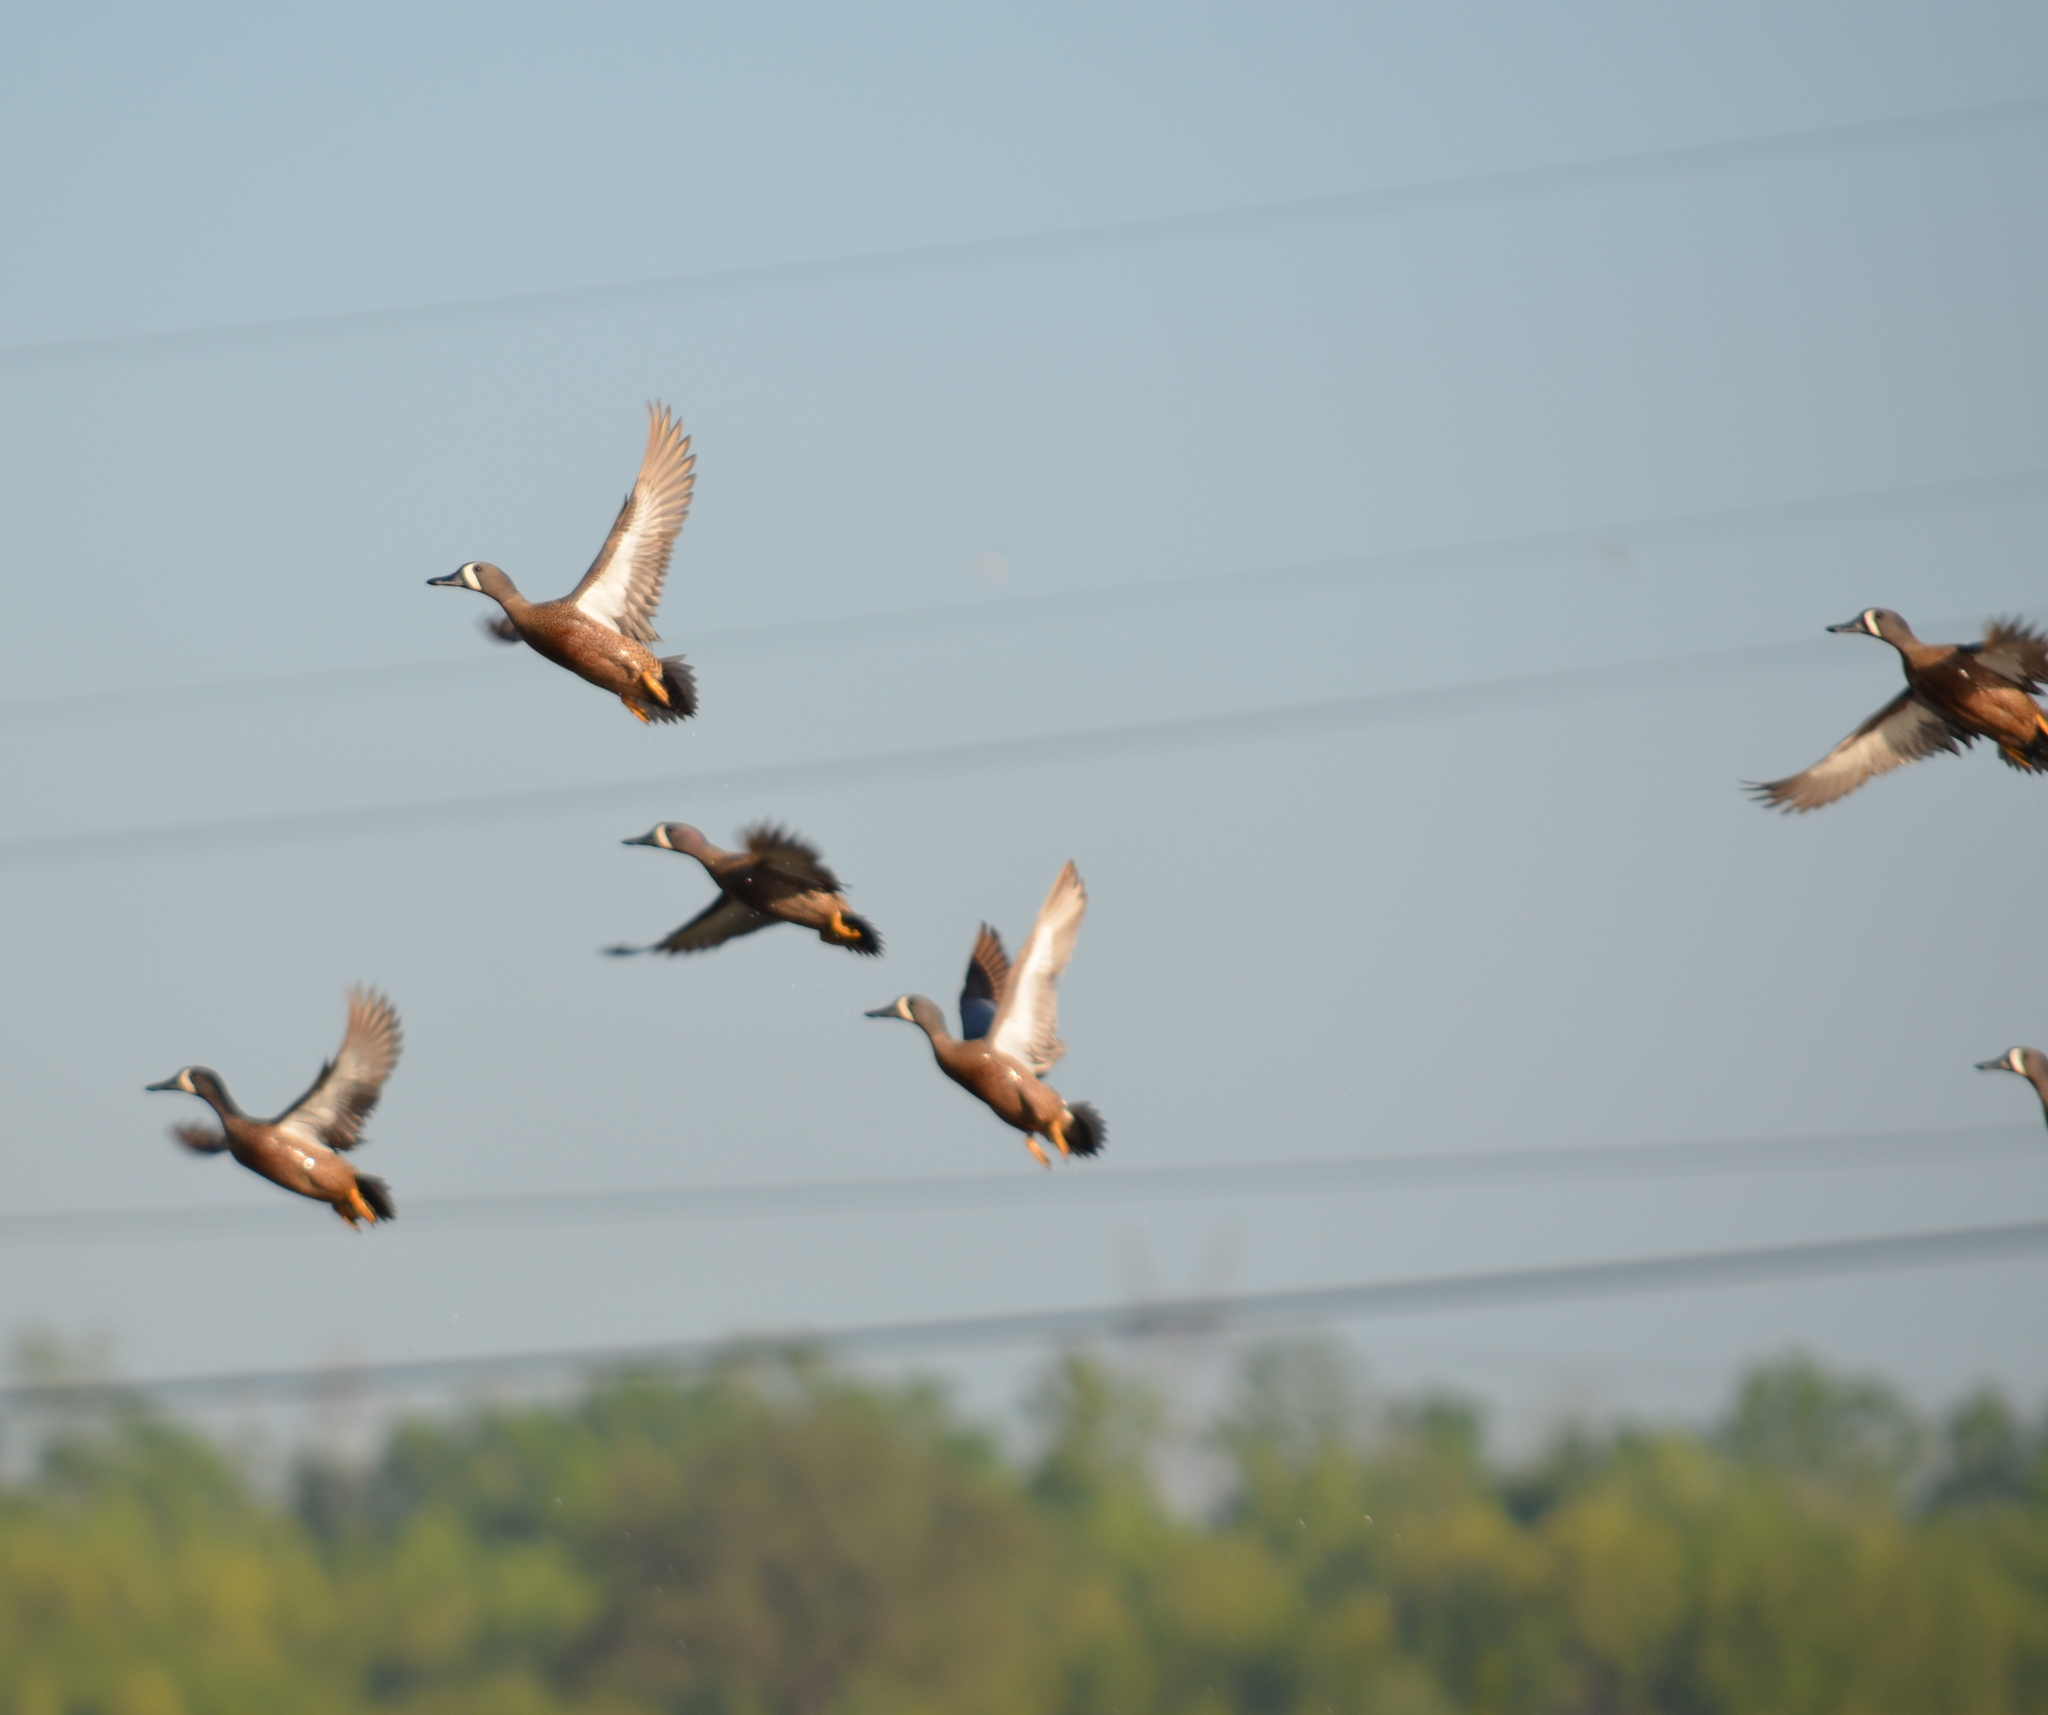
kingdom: Animalia
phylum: Chordata
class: Aves
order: Anseriformes
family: Anatidae
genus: Spatula
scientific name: Spatula discors
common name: Blue-winged teal
